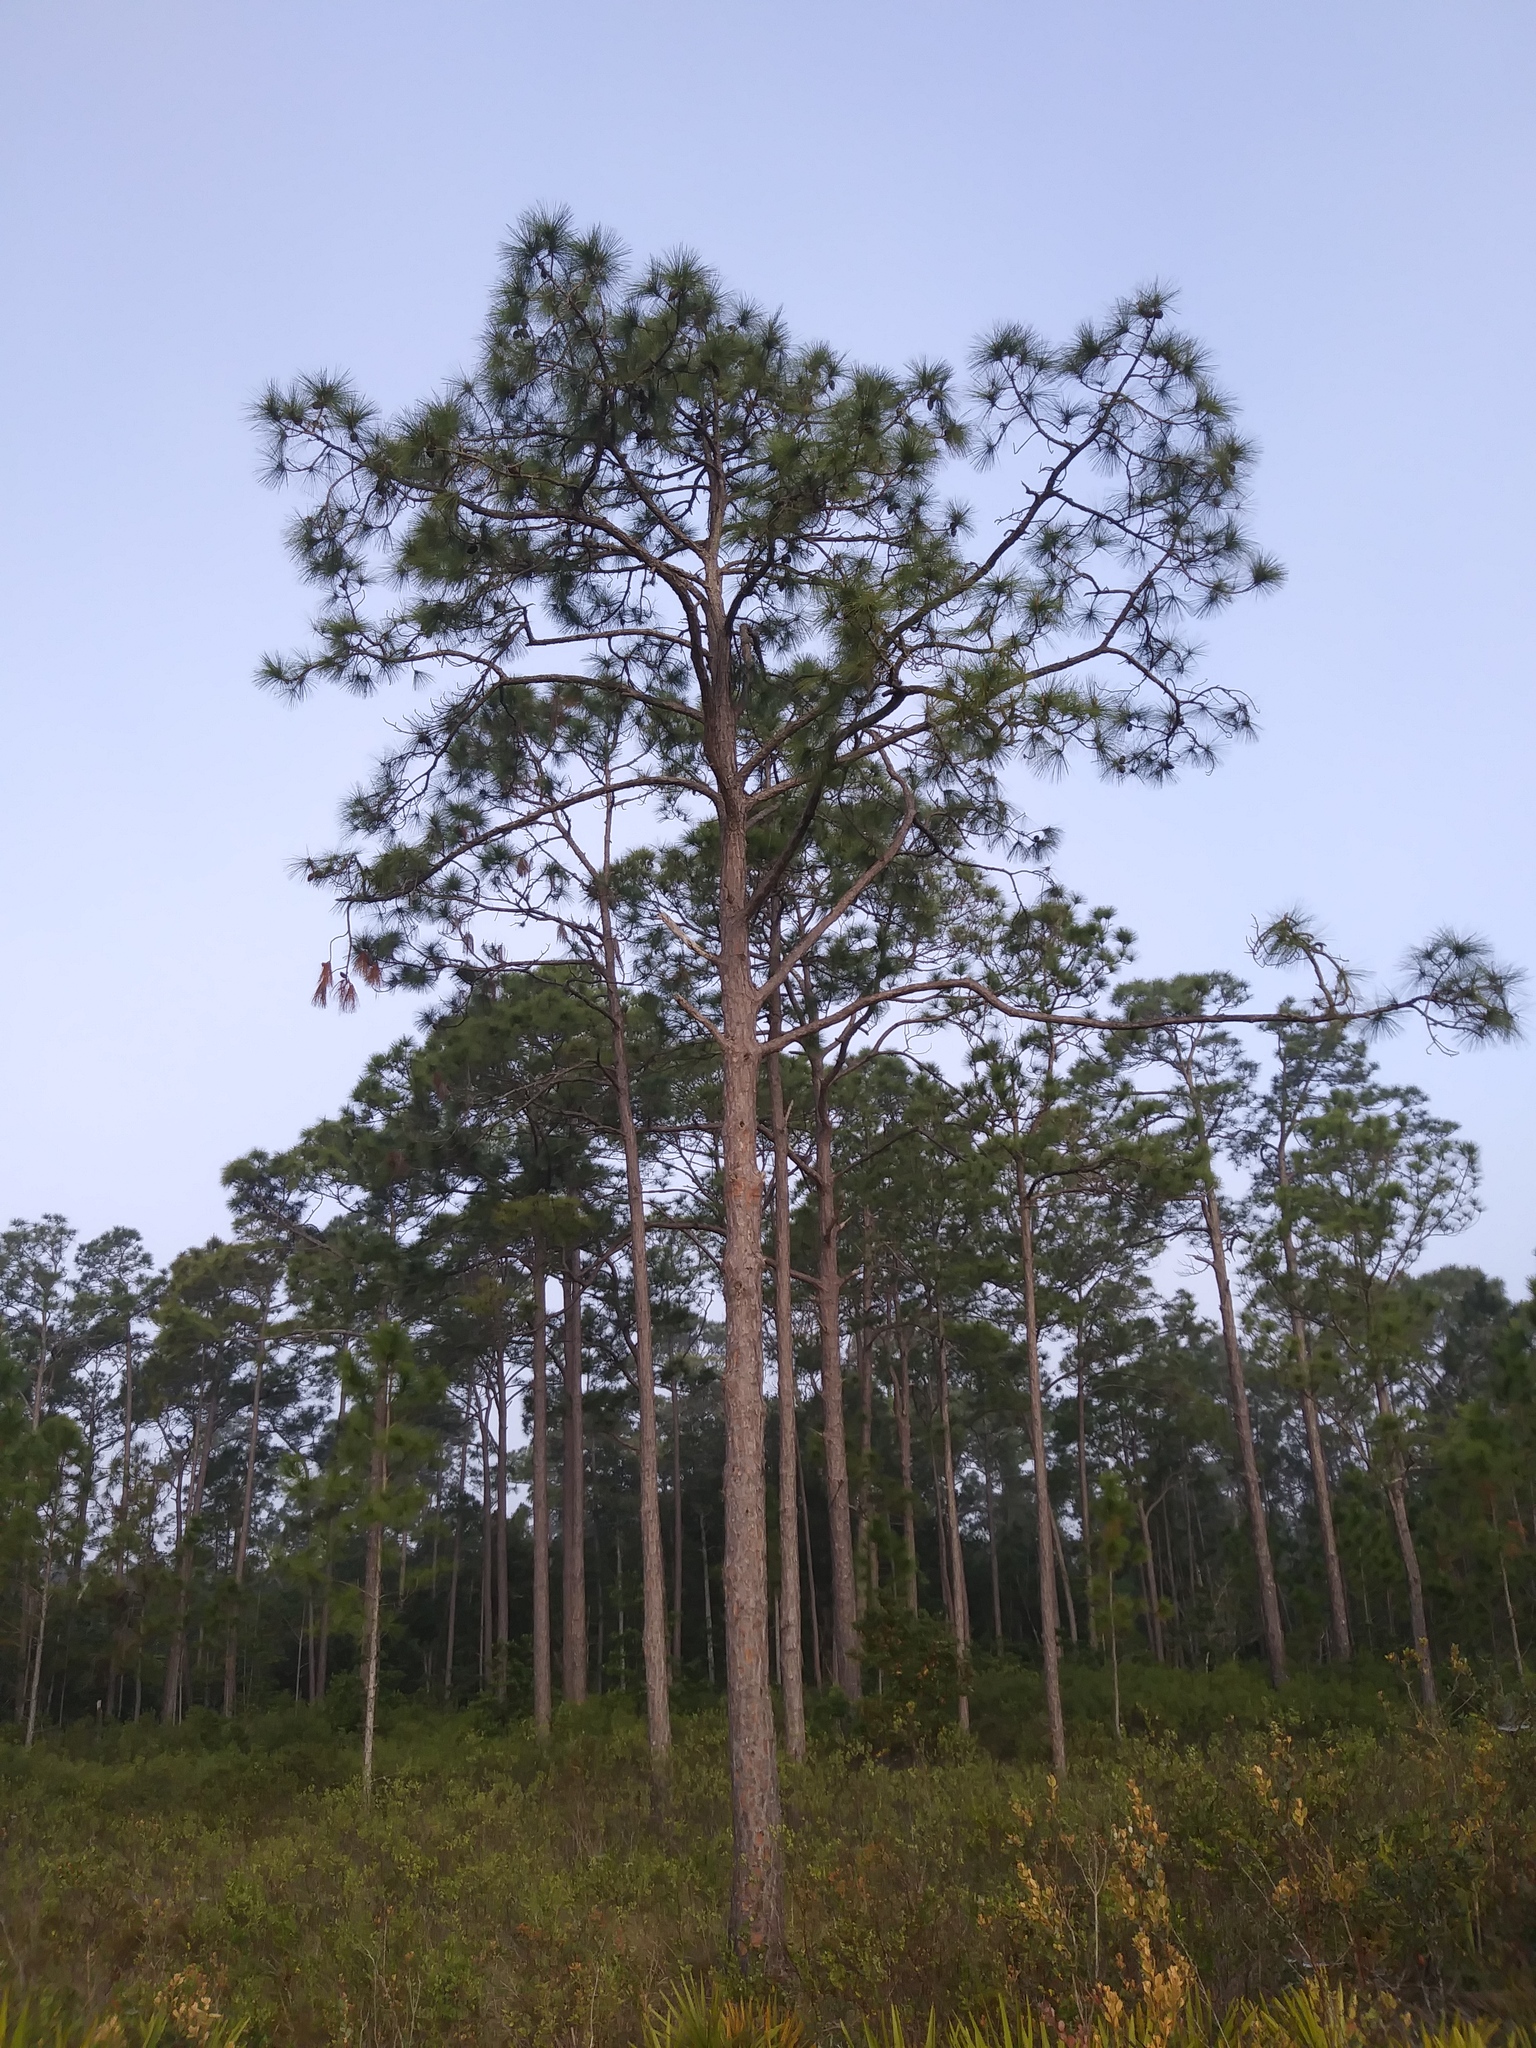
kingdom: Plantae
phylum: Tracheophyta
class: Pinopsida
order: Pinales
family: Pinaceae
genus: Pinus
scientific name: Pinus elliottii
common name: Slash pine
